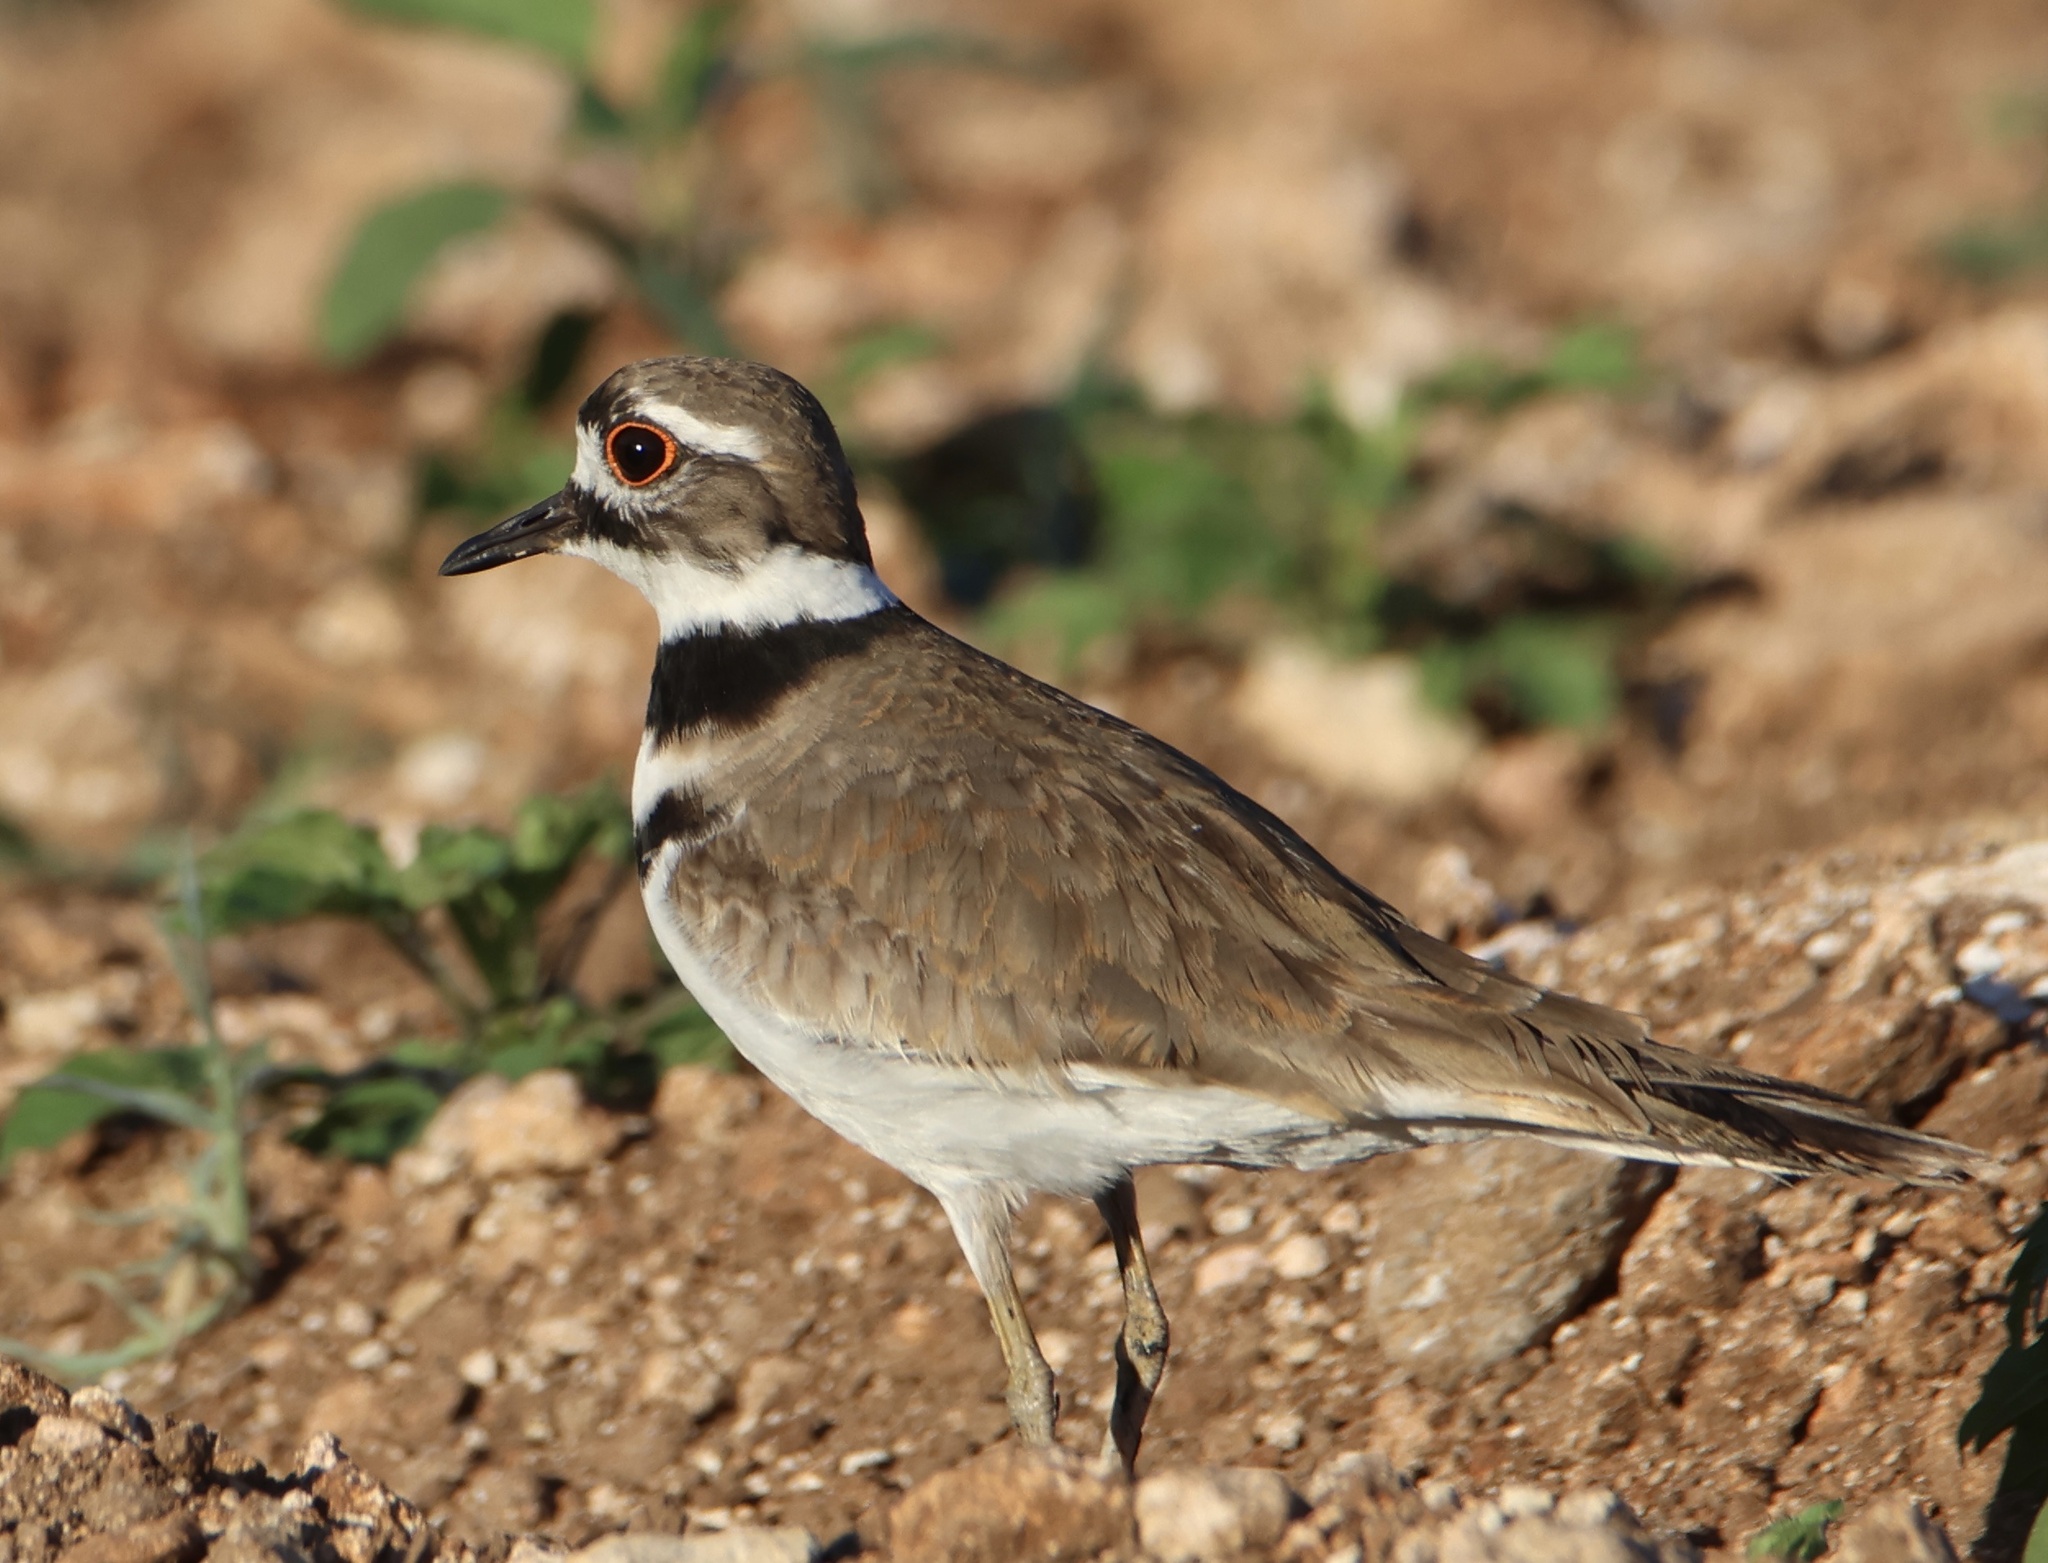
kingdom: Animalia
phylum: Chordata
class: Aves
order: Charadriiformes
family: Charadriidae
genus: Charadrius
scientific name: Charadrius vociferus
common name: Killdeer
